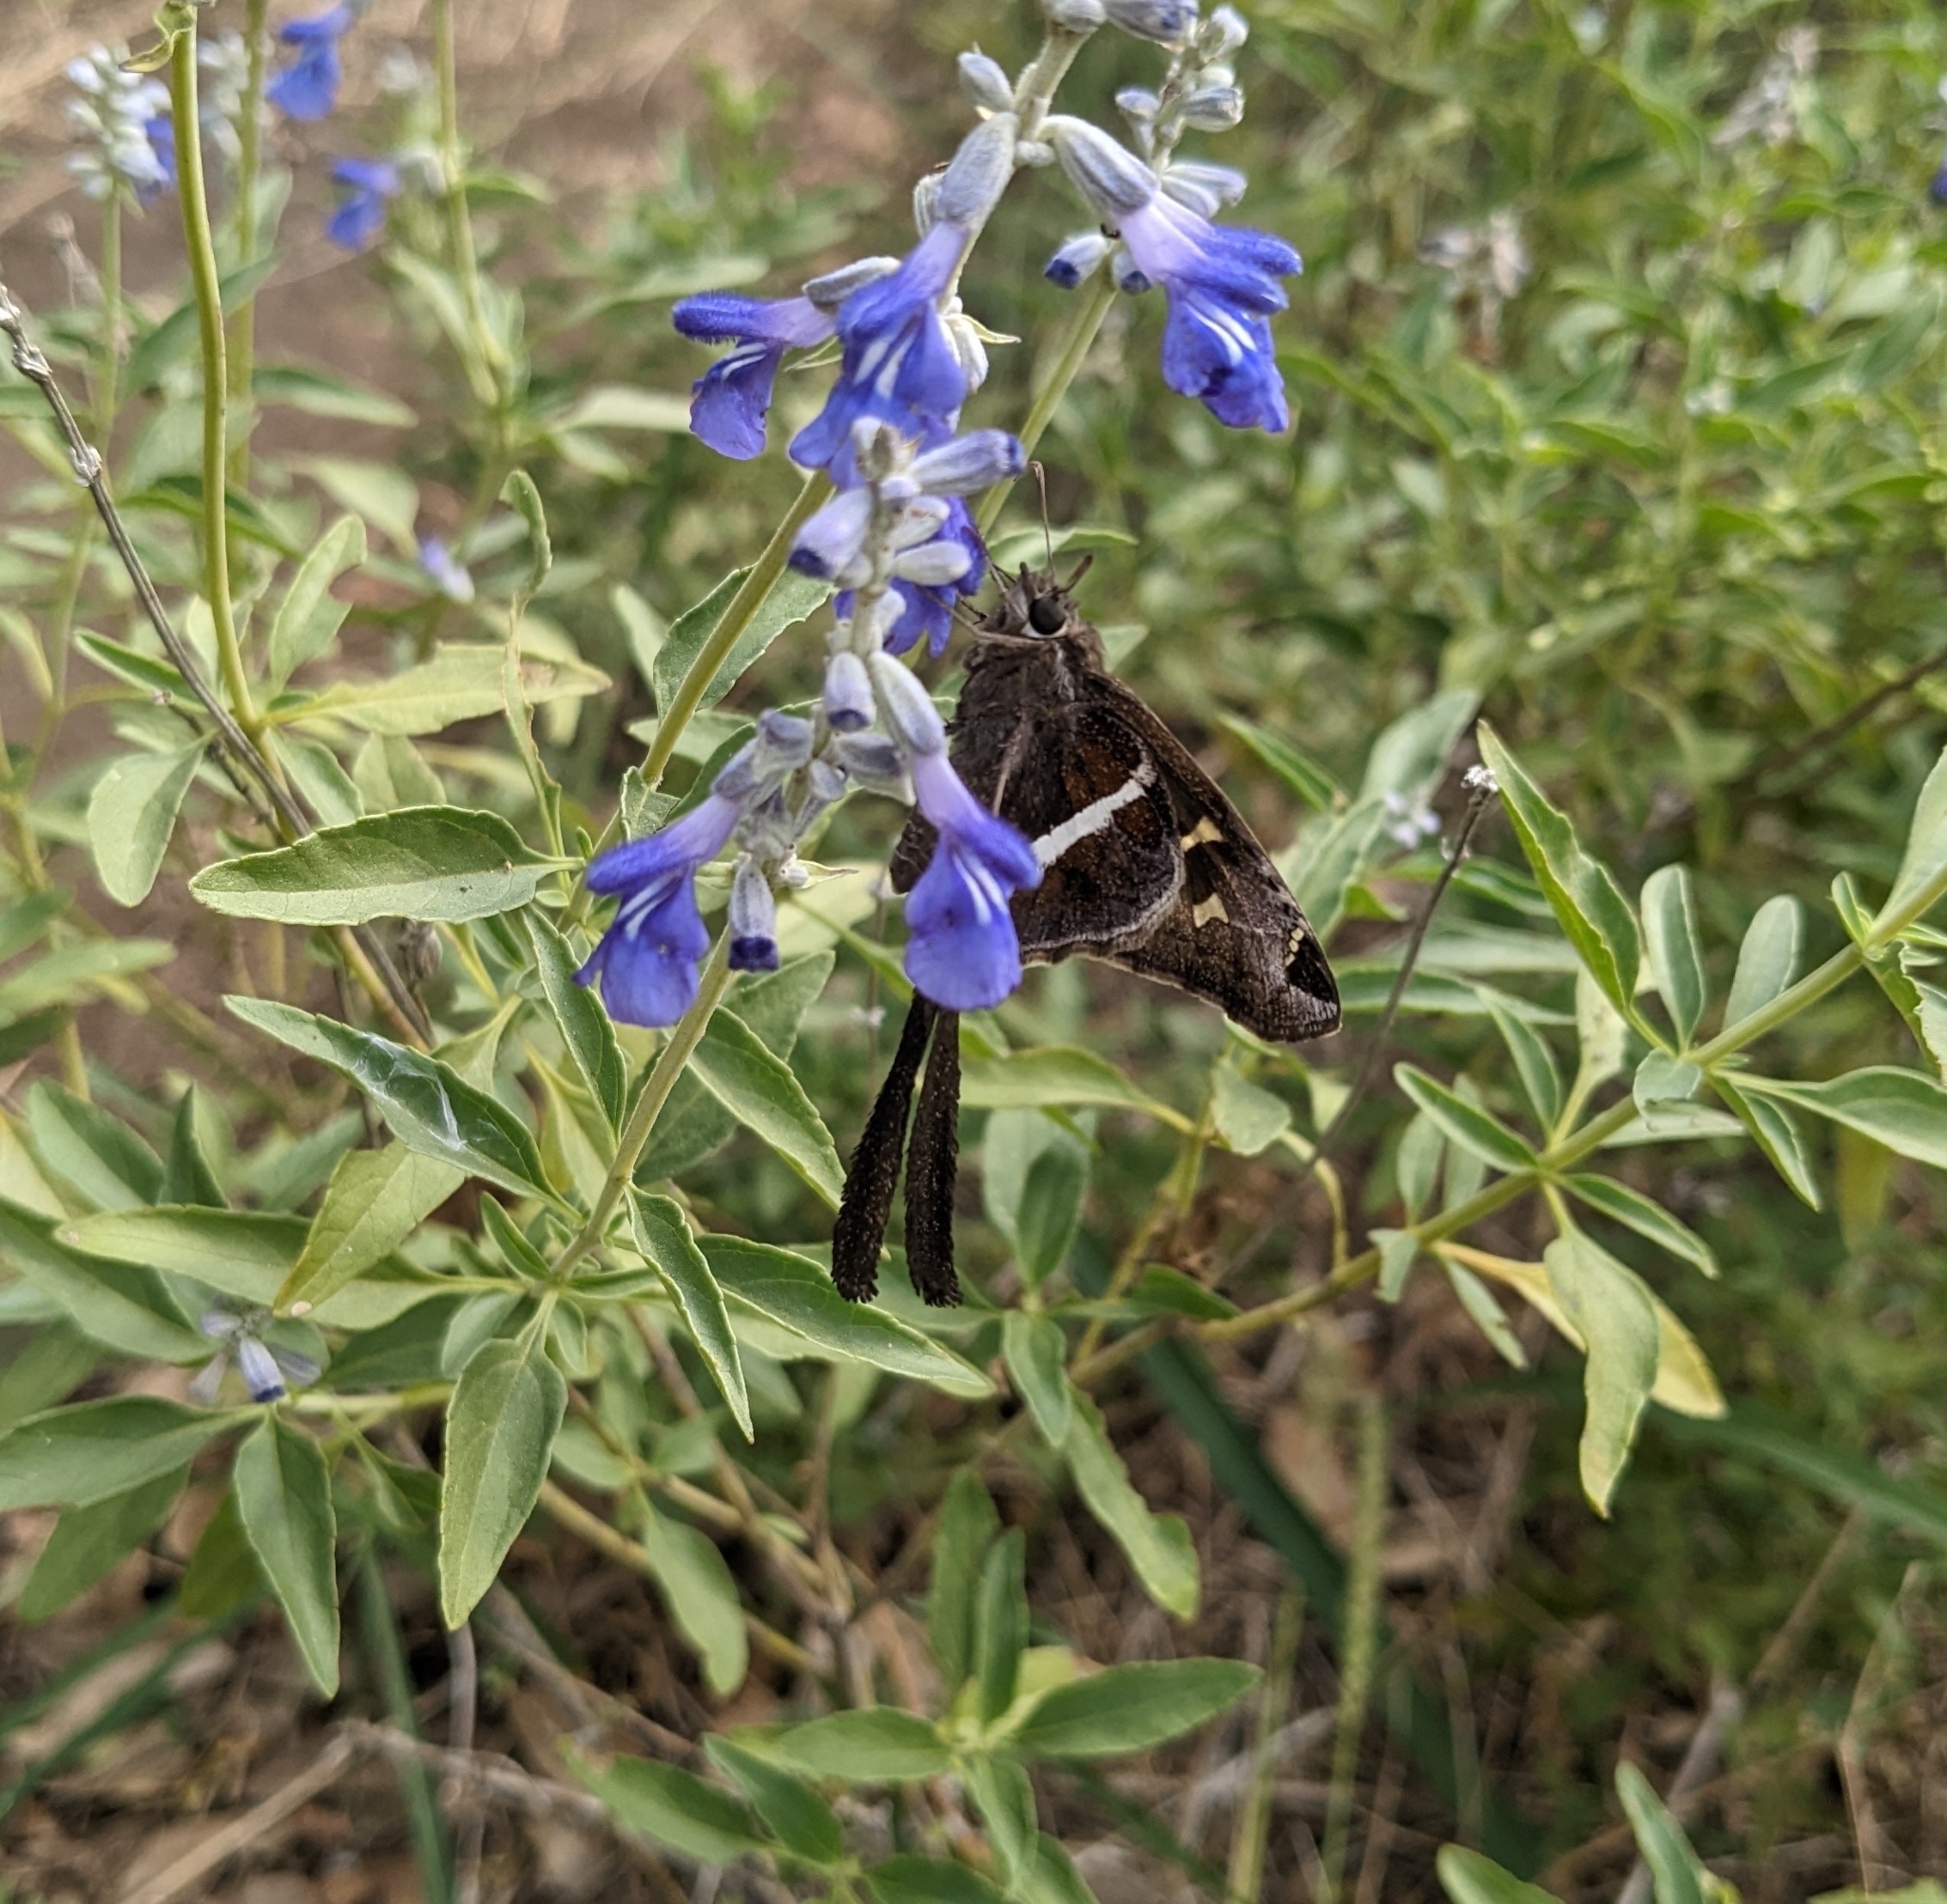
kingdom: Animalia
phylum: Arthropoda
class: Insecta
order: Lepidoptera
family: Hesperiidae
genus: Chioides
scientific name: Chioides catillus
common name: Silverbanded skipper
